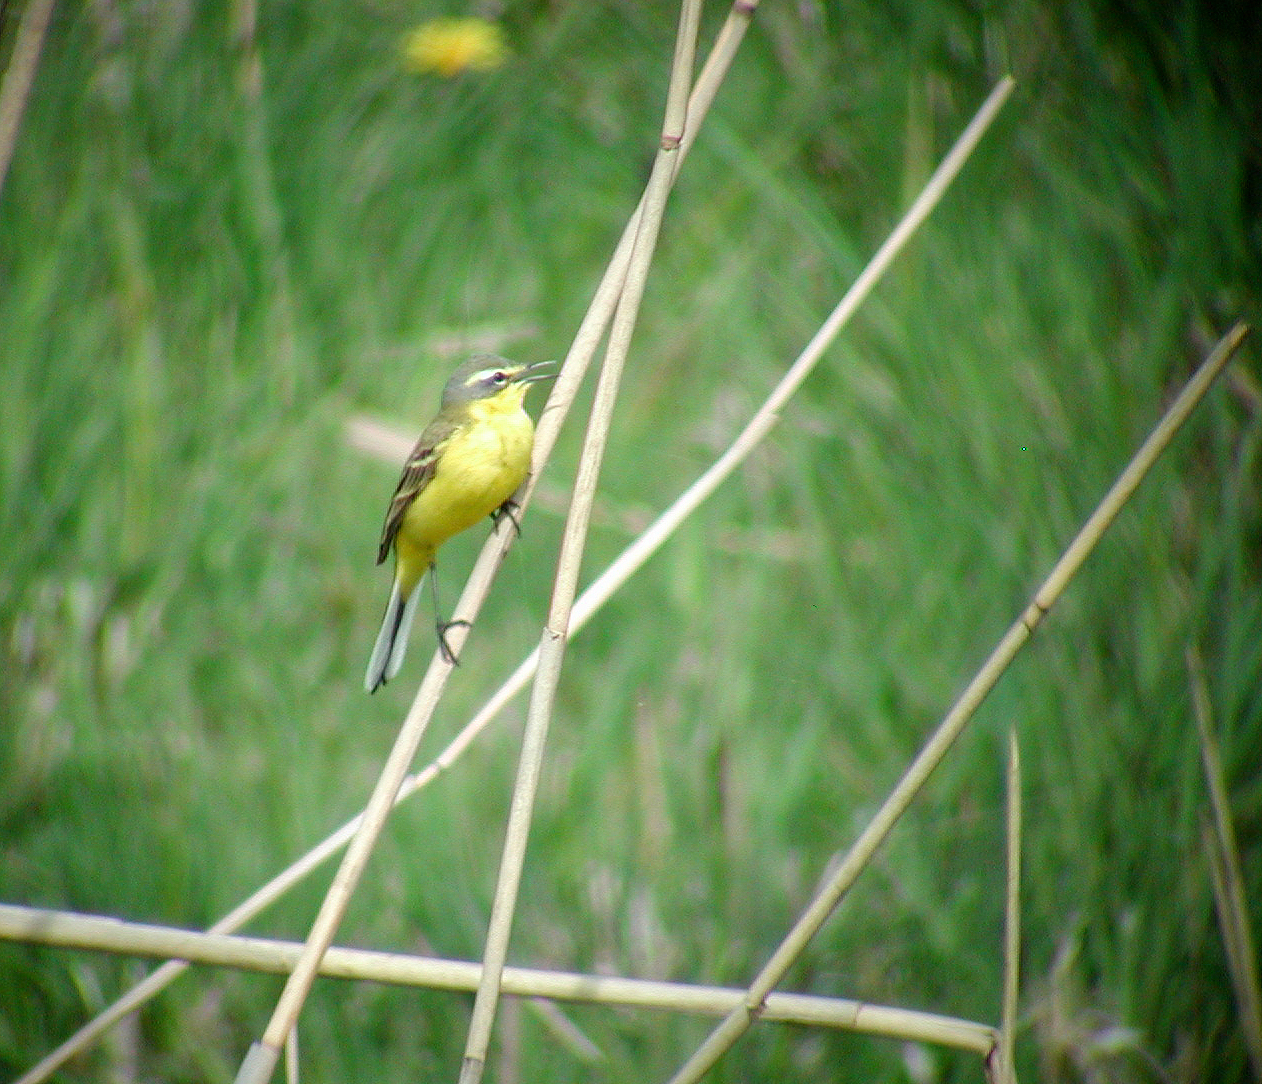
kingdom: Animalia
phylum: Chordata
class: Aves
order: Passeriformes
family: Motacillidae
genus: Motacilla
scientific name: Motacilla flava
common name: Western yellow wagtail
